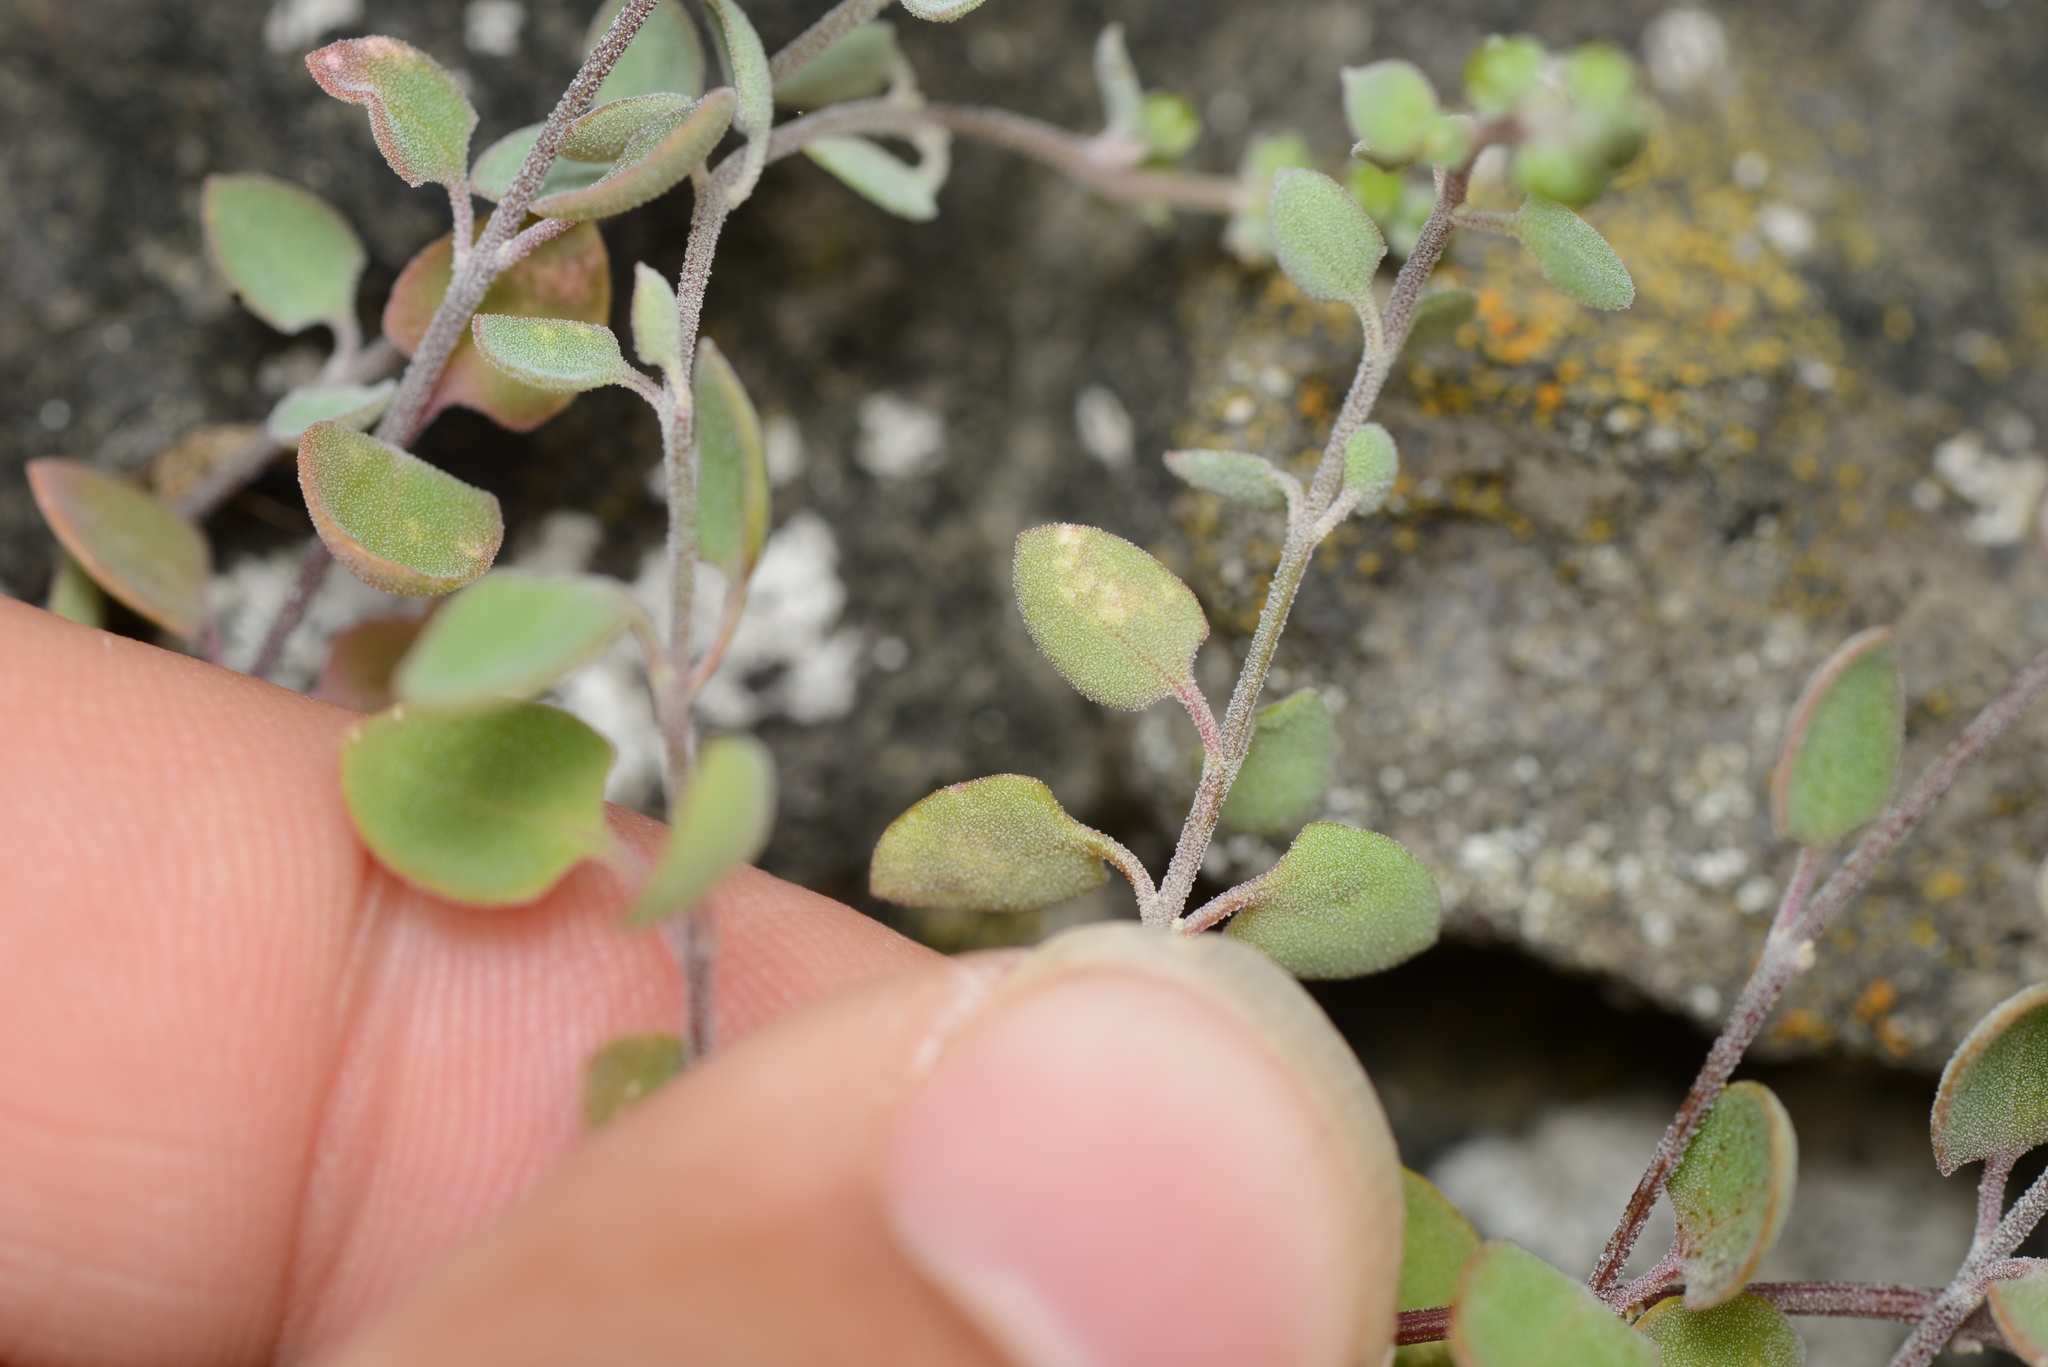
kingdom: Plantae
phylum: Tracheophyta
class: Magnoliopsida
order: Caryophyllales
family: Amaranthaceae
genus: Chenopodium
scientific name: Chenopodium allanii
